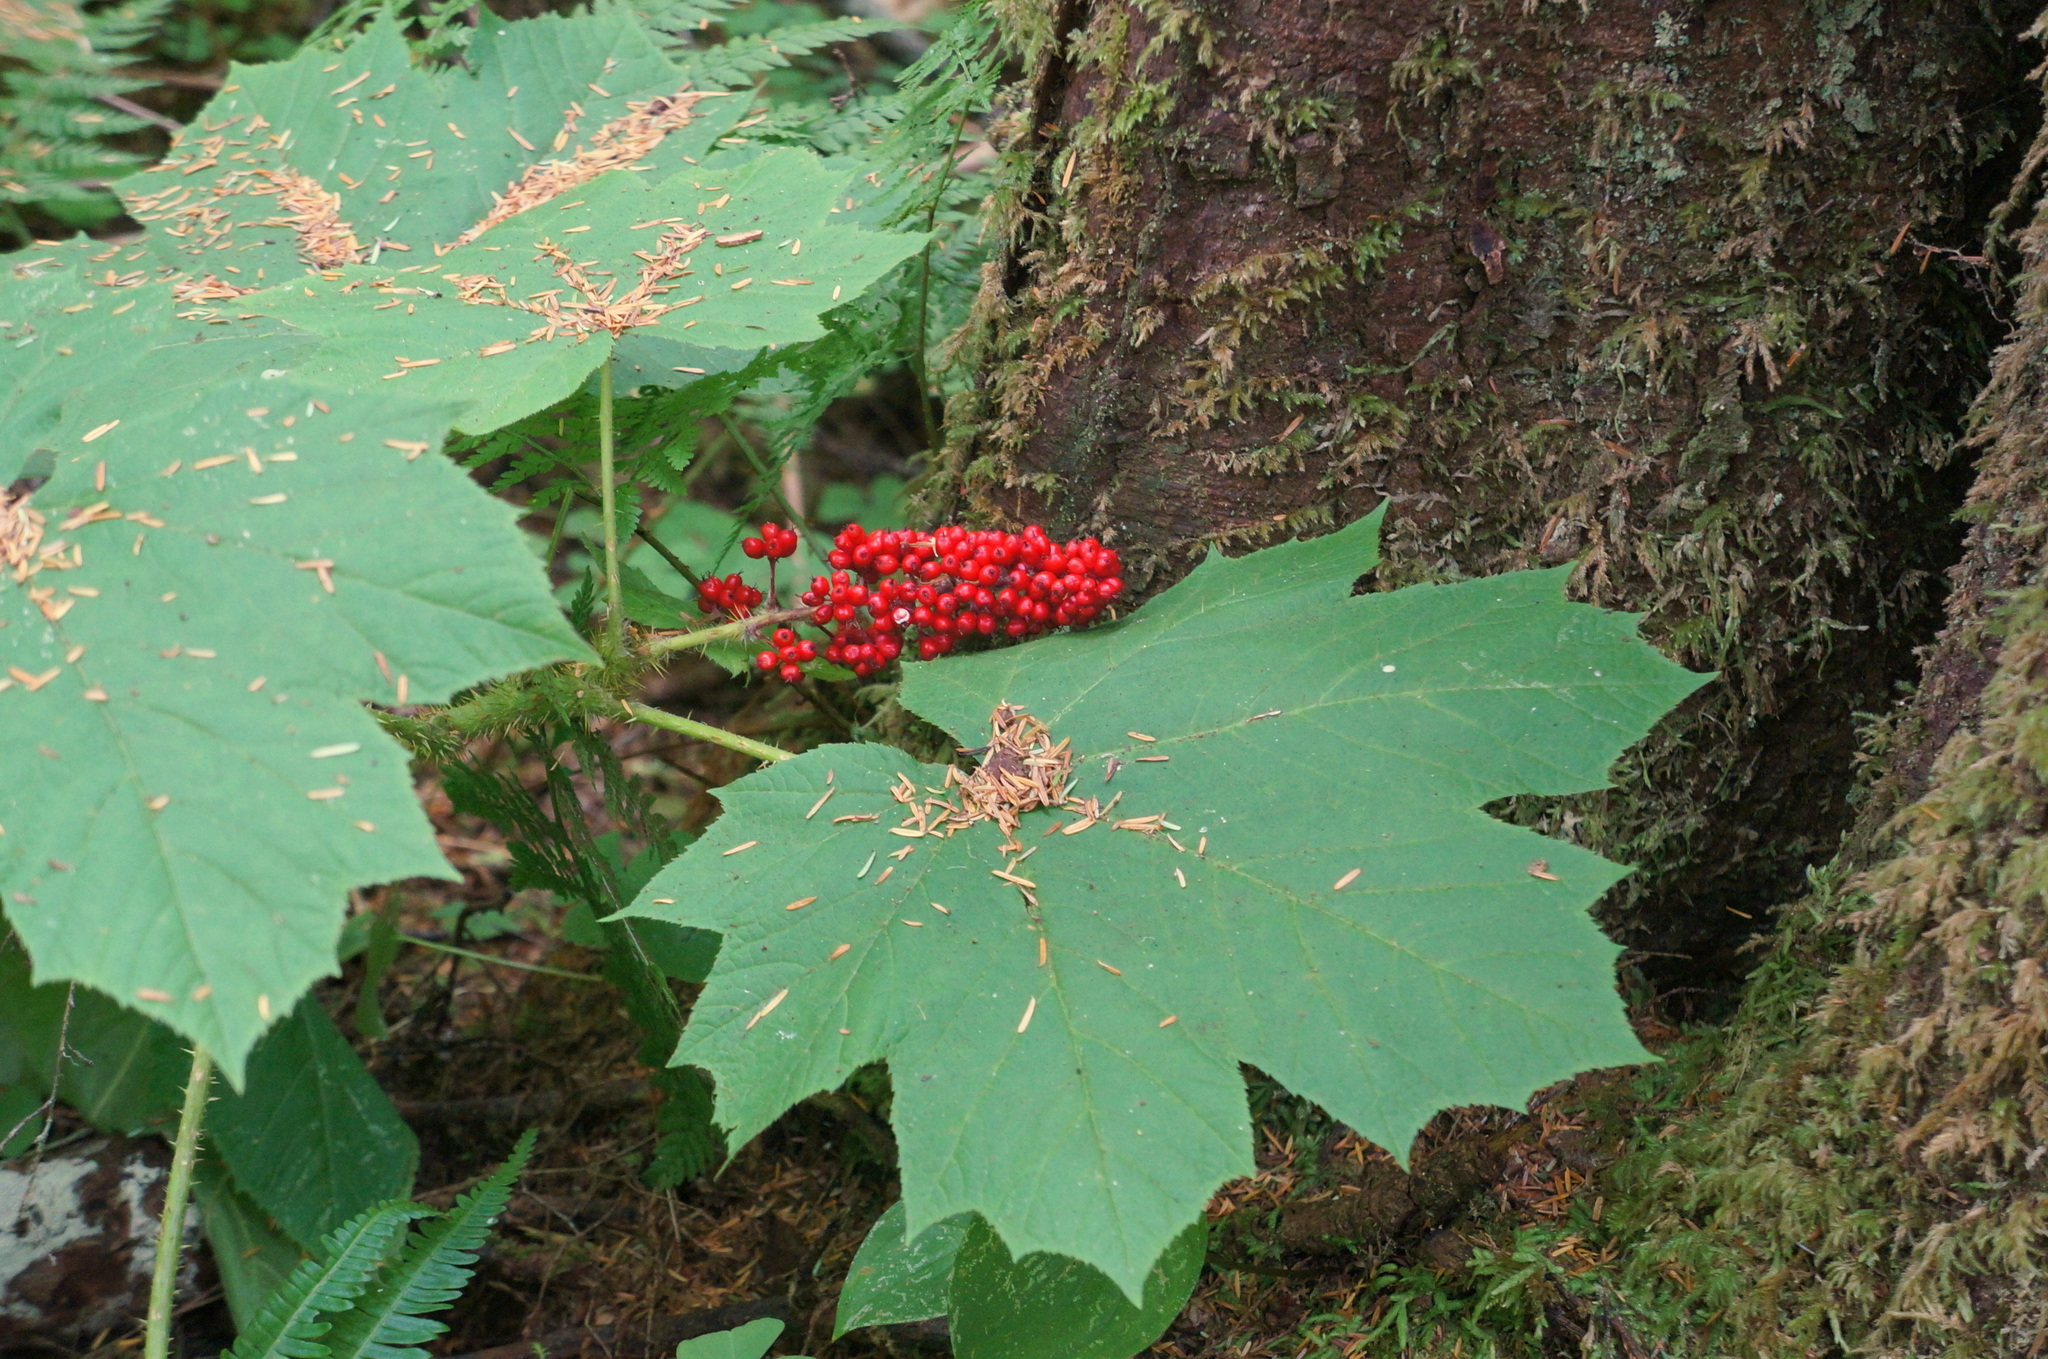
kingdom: Plantae
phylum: Tracheophyta
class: Magnoliopsida
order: Apiales
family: Araliaceae
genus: Oplopanax
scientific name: Oplopanax horridus
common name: Devil's walking-stick
